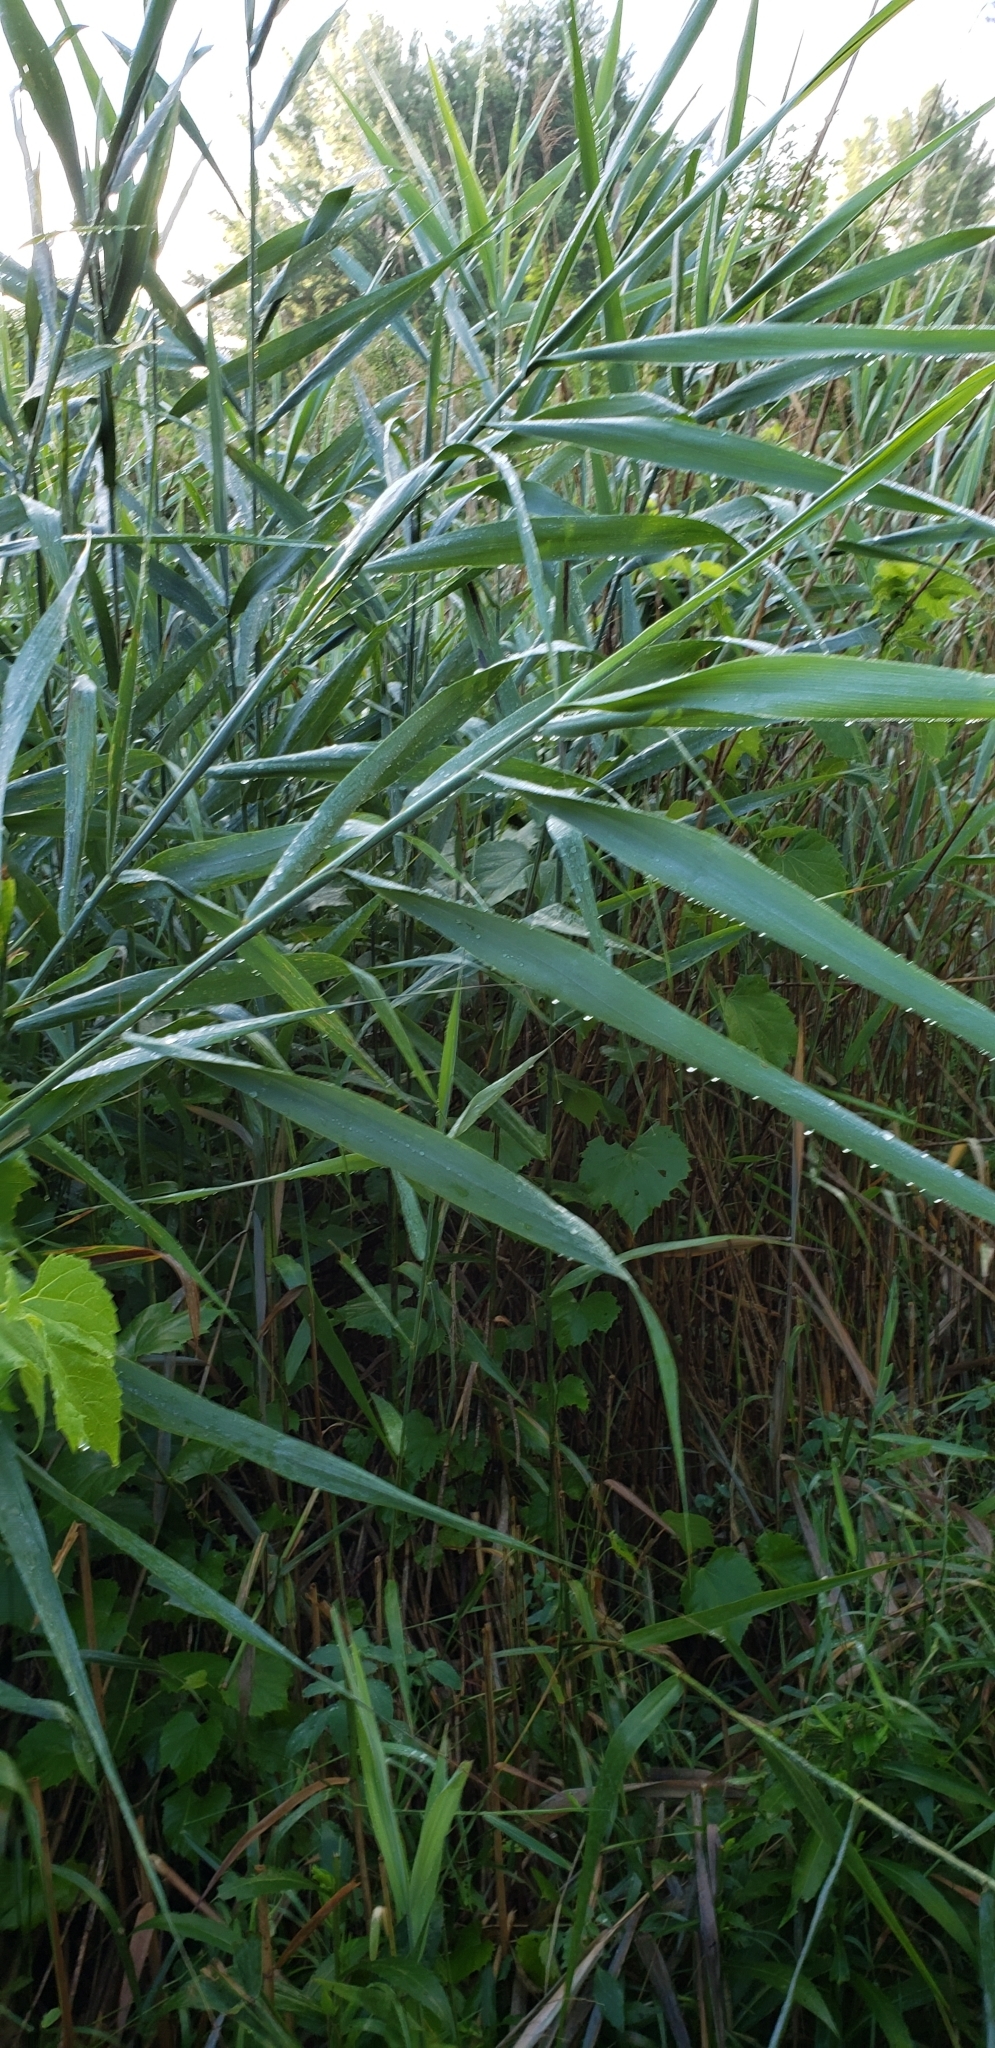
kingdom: Plantae
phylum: Tracheophyta
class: Liliopsida
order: Poales
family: Poaceae
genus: Phragmites
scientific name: Phragmites australis
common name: Common reed
